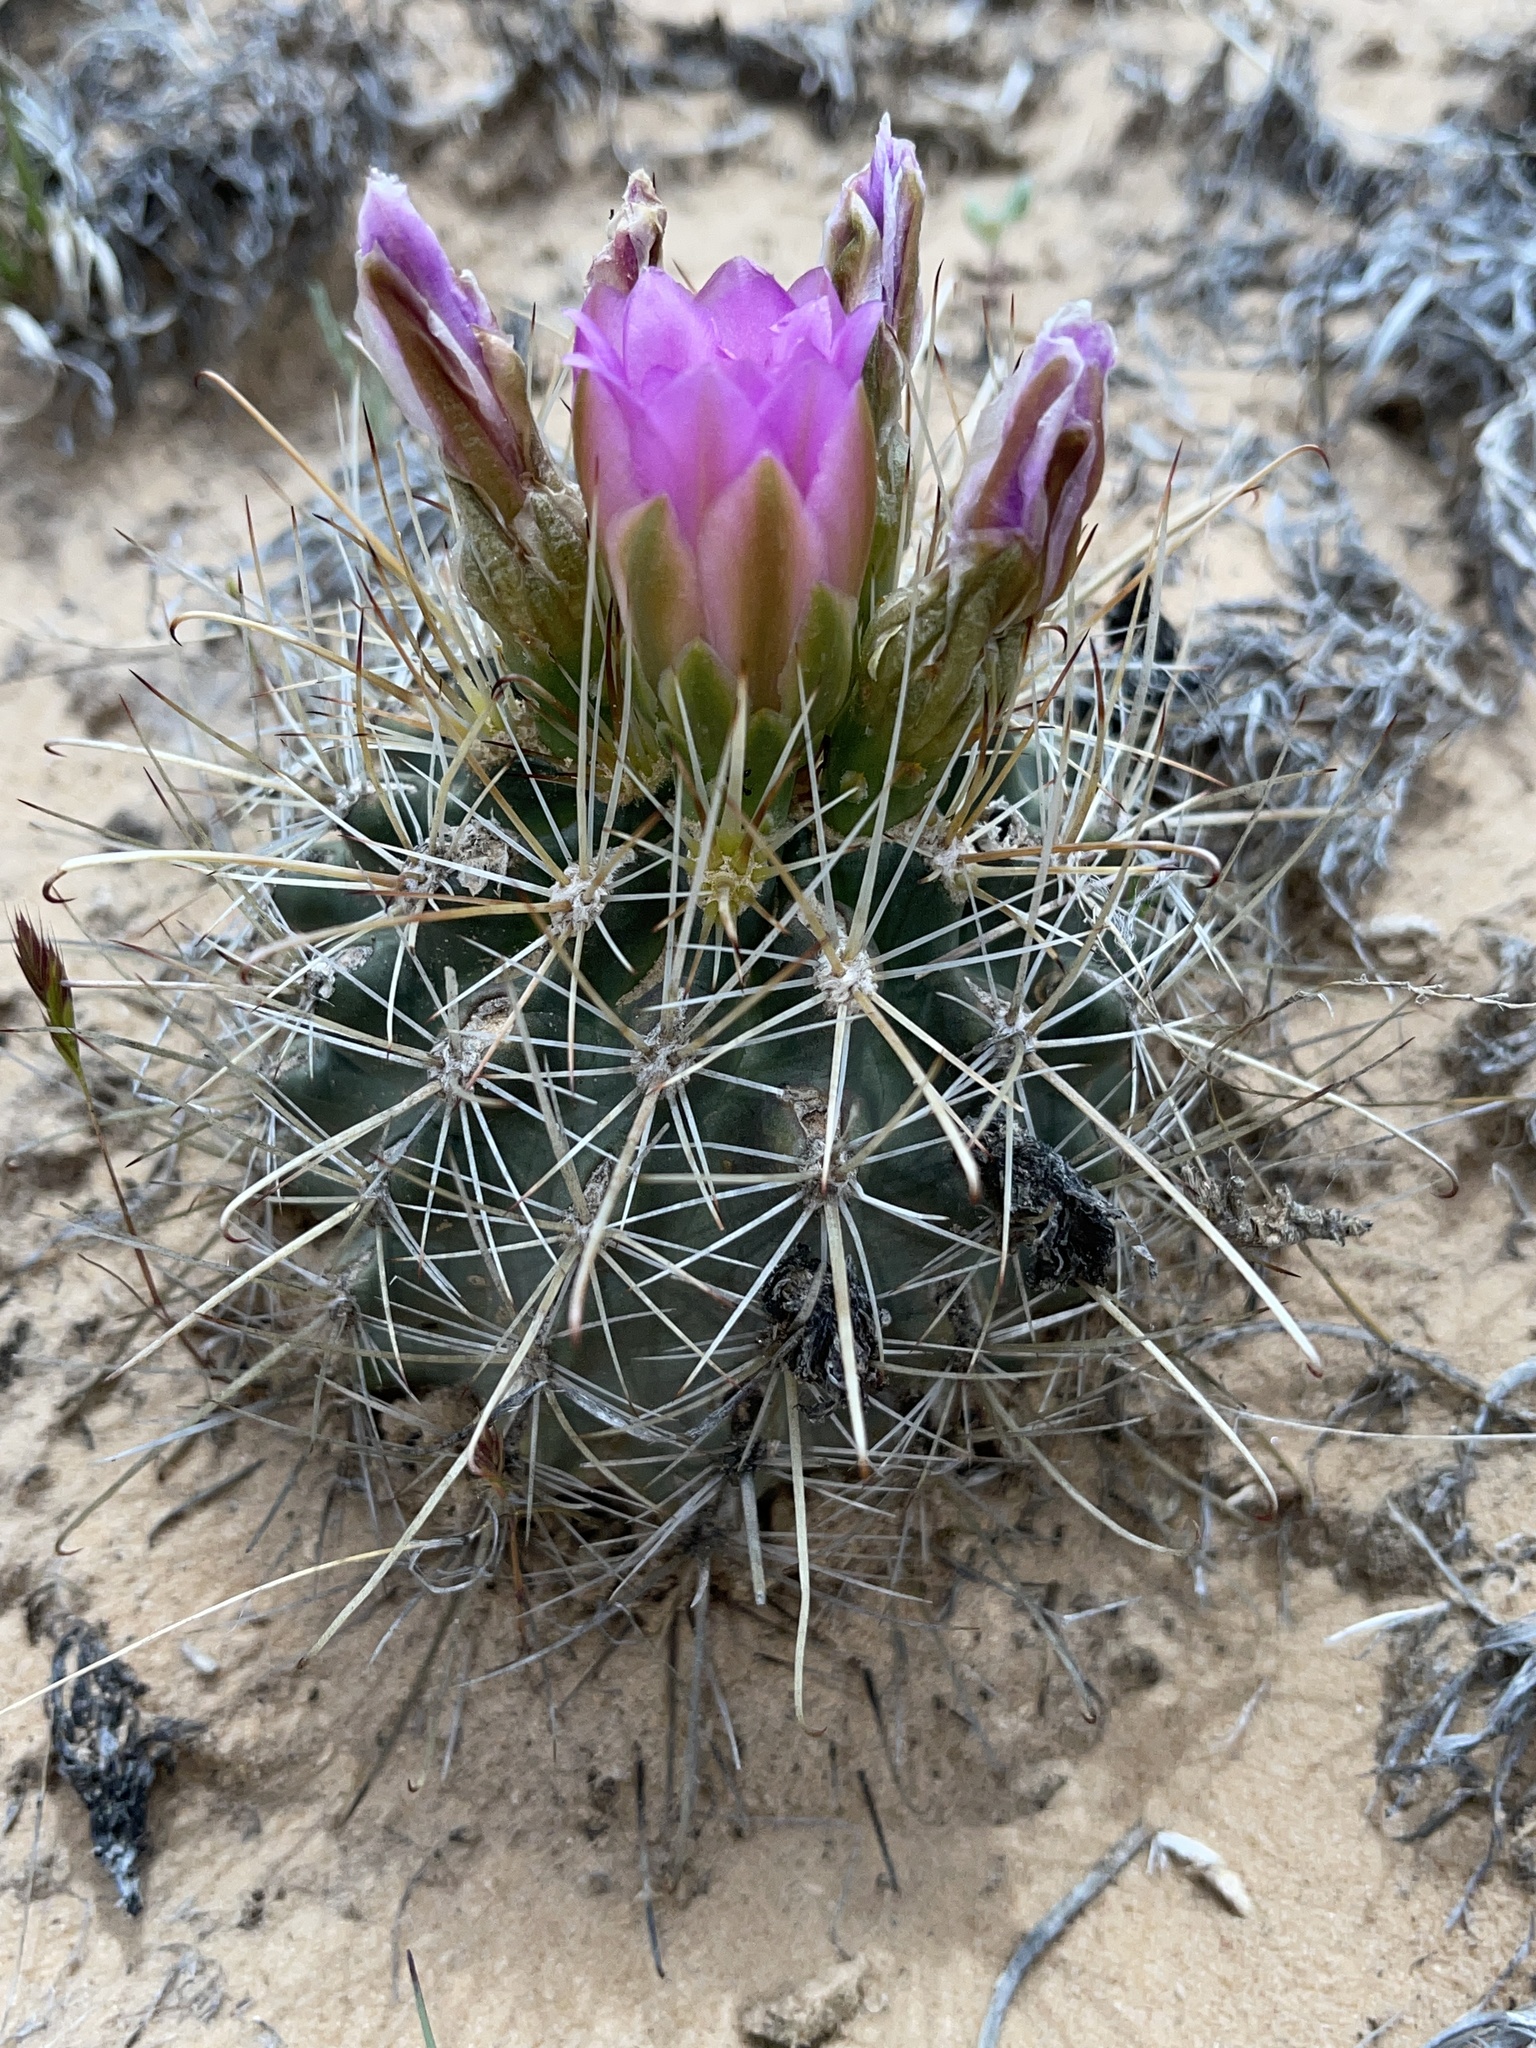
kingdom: Plantae
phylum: Tracheophyta
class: Magnoliopsida
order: Caryophyllales
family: Cactaceae
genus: Sclerocactus
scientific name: Sclerocactus parviflorus
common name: Small-flower fishhook cactus
